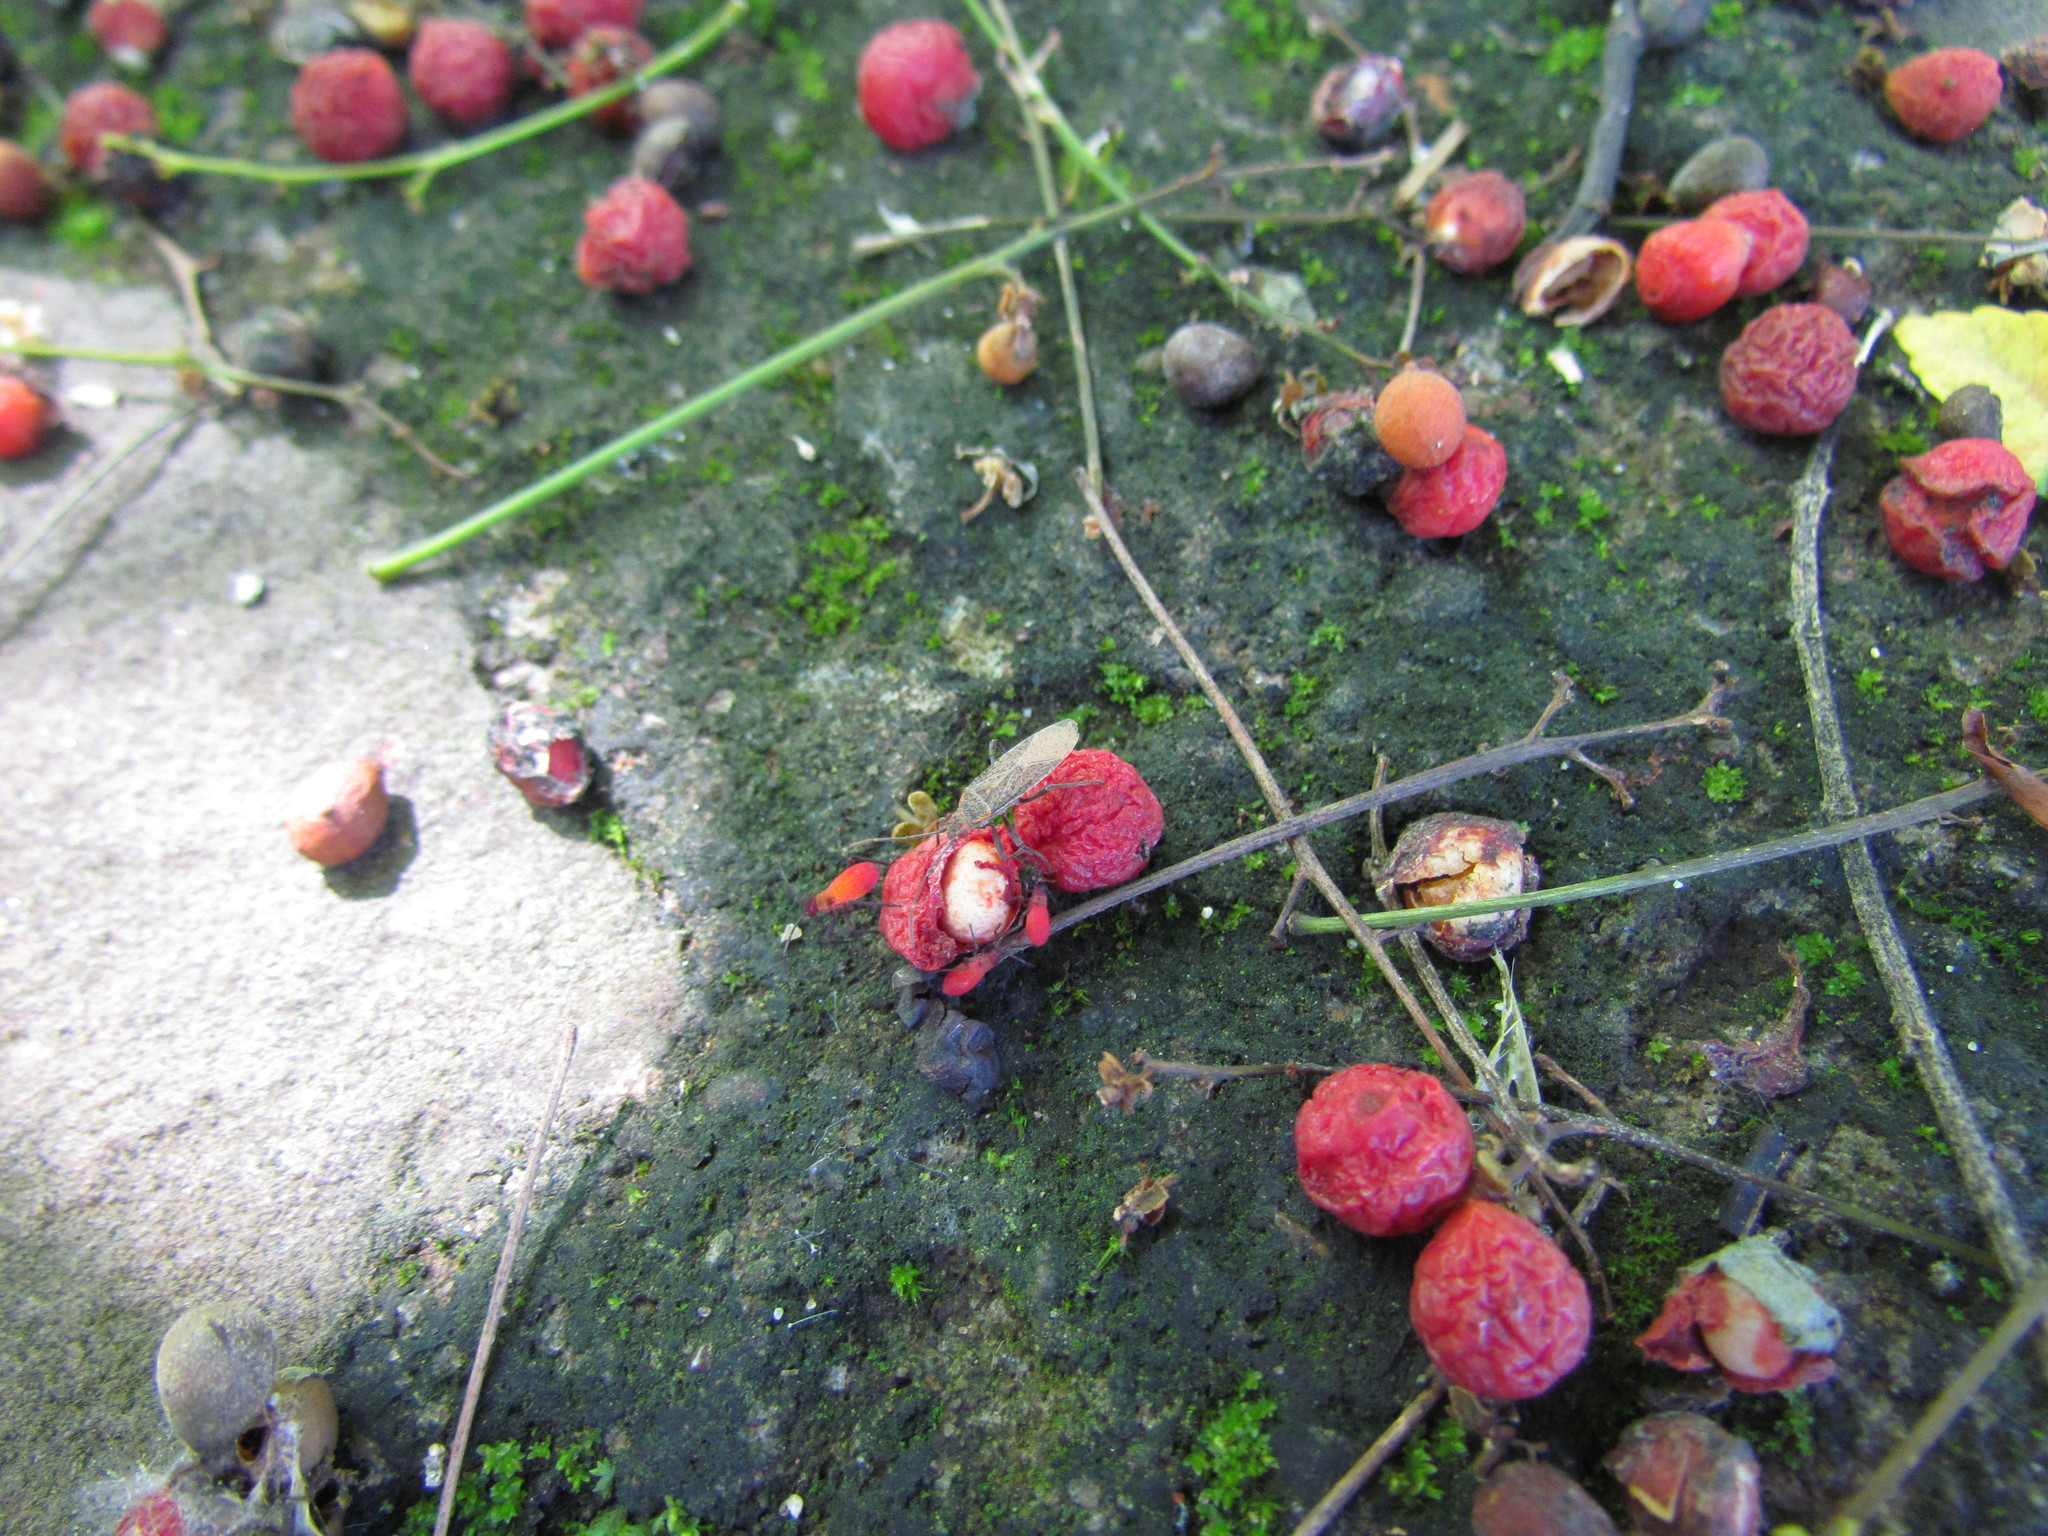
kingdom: Animalia
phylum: Arthropoda
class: Insecta
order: Hemiptera
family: Rhopalidae
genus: Jadera
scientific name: Jadera coturnix
